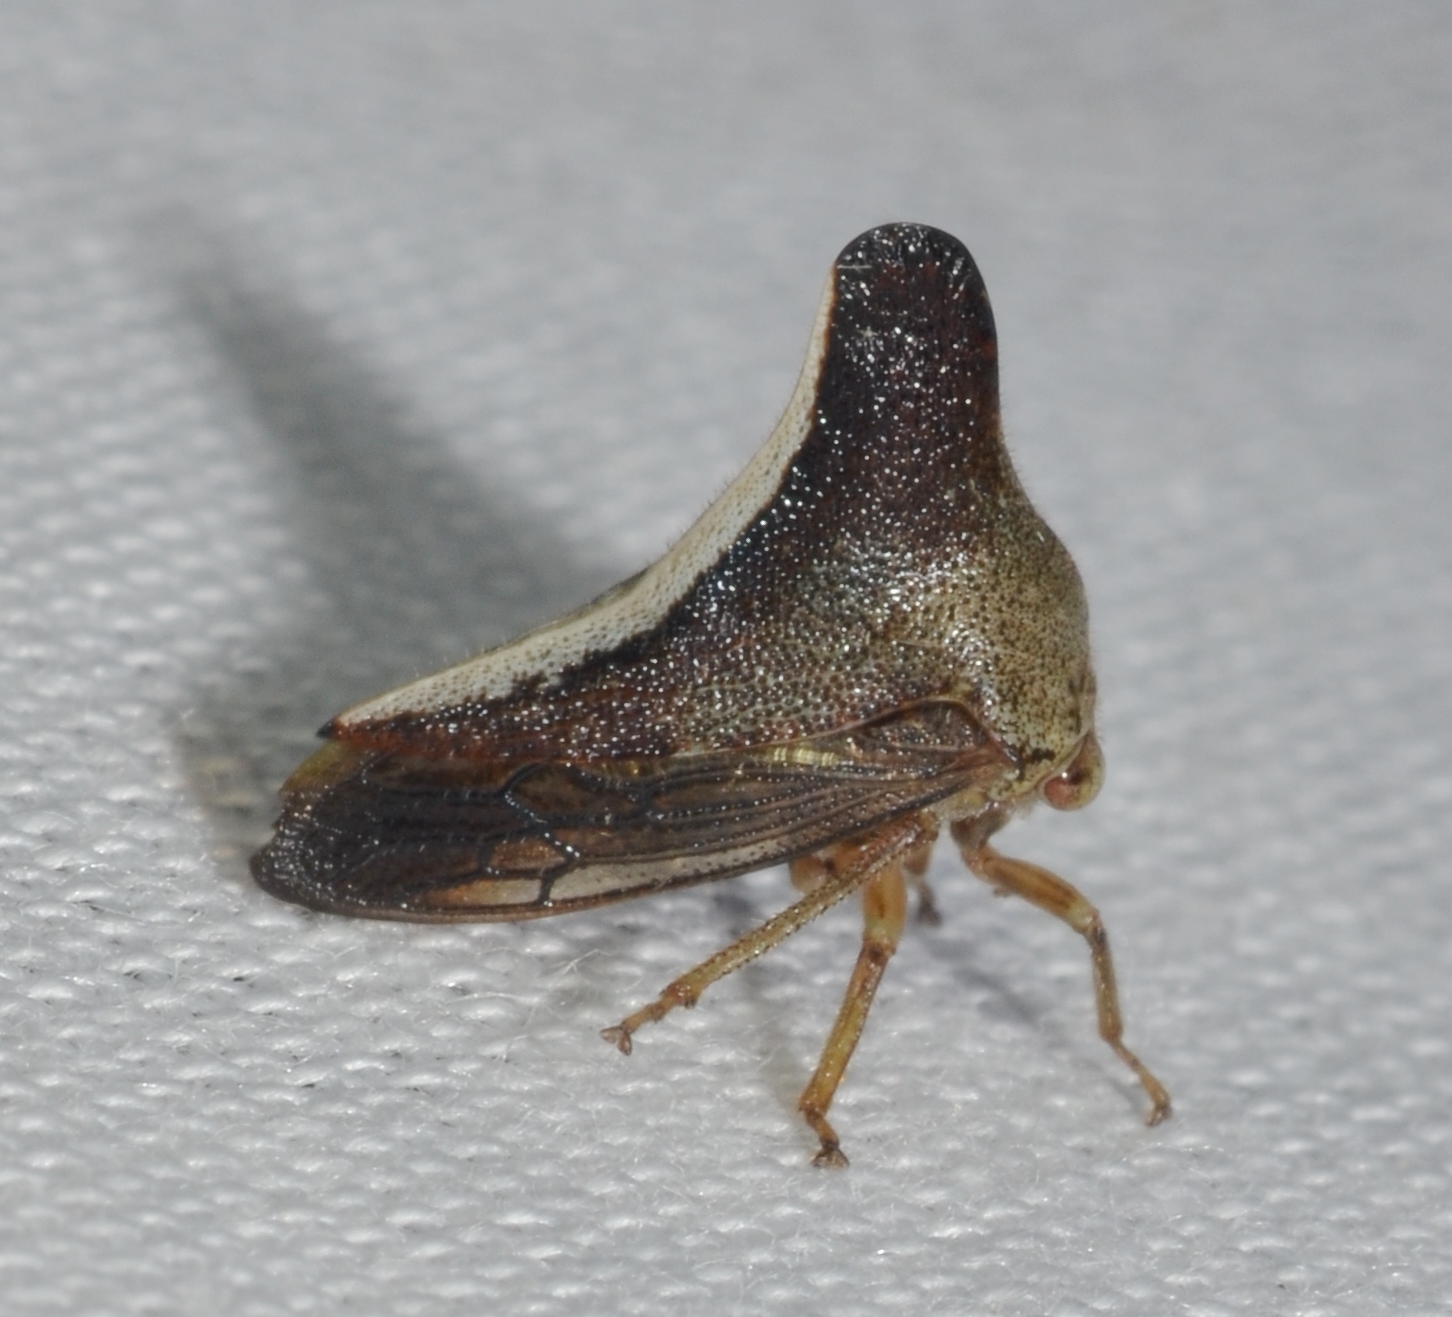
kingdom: Animalia
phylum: Arthropoda
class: Insecta
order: Hemiptera
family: Membracidae
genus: Glossonotus
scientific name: Glossonotus univittatus
